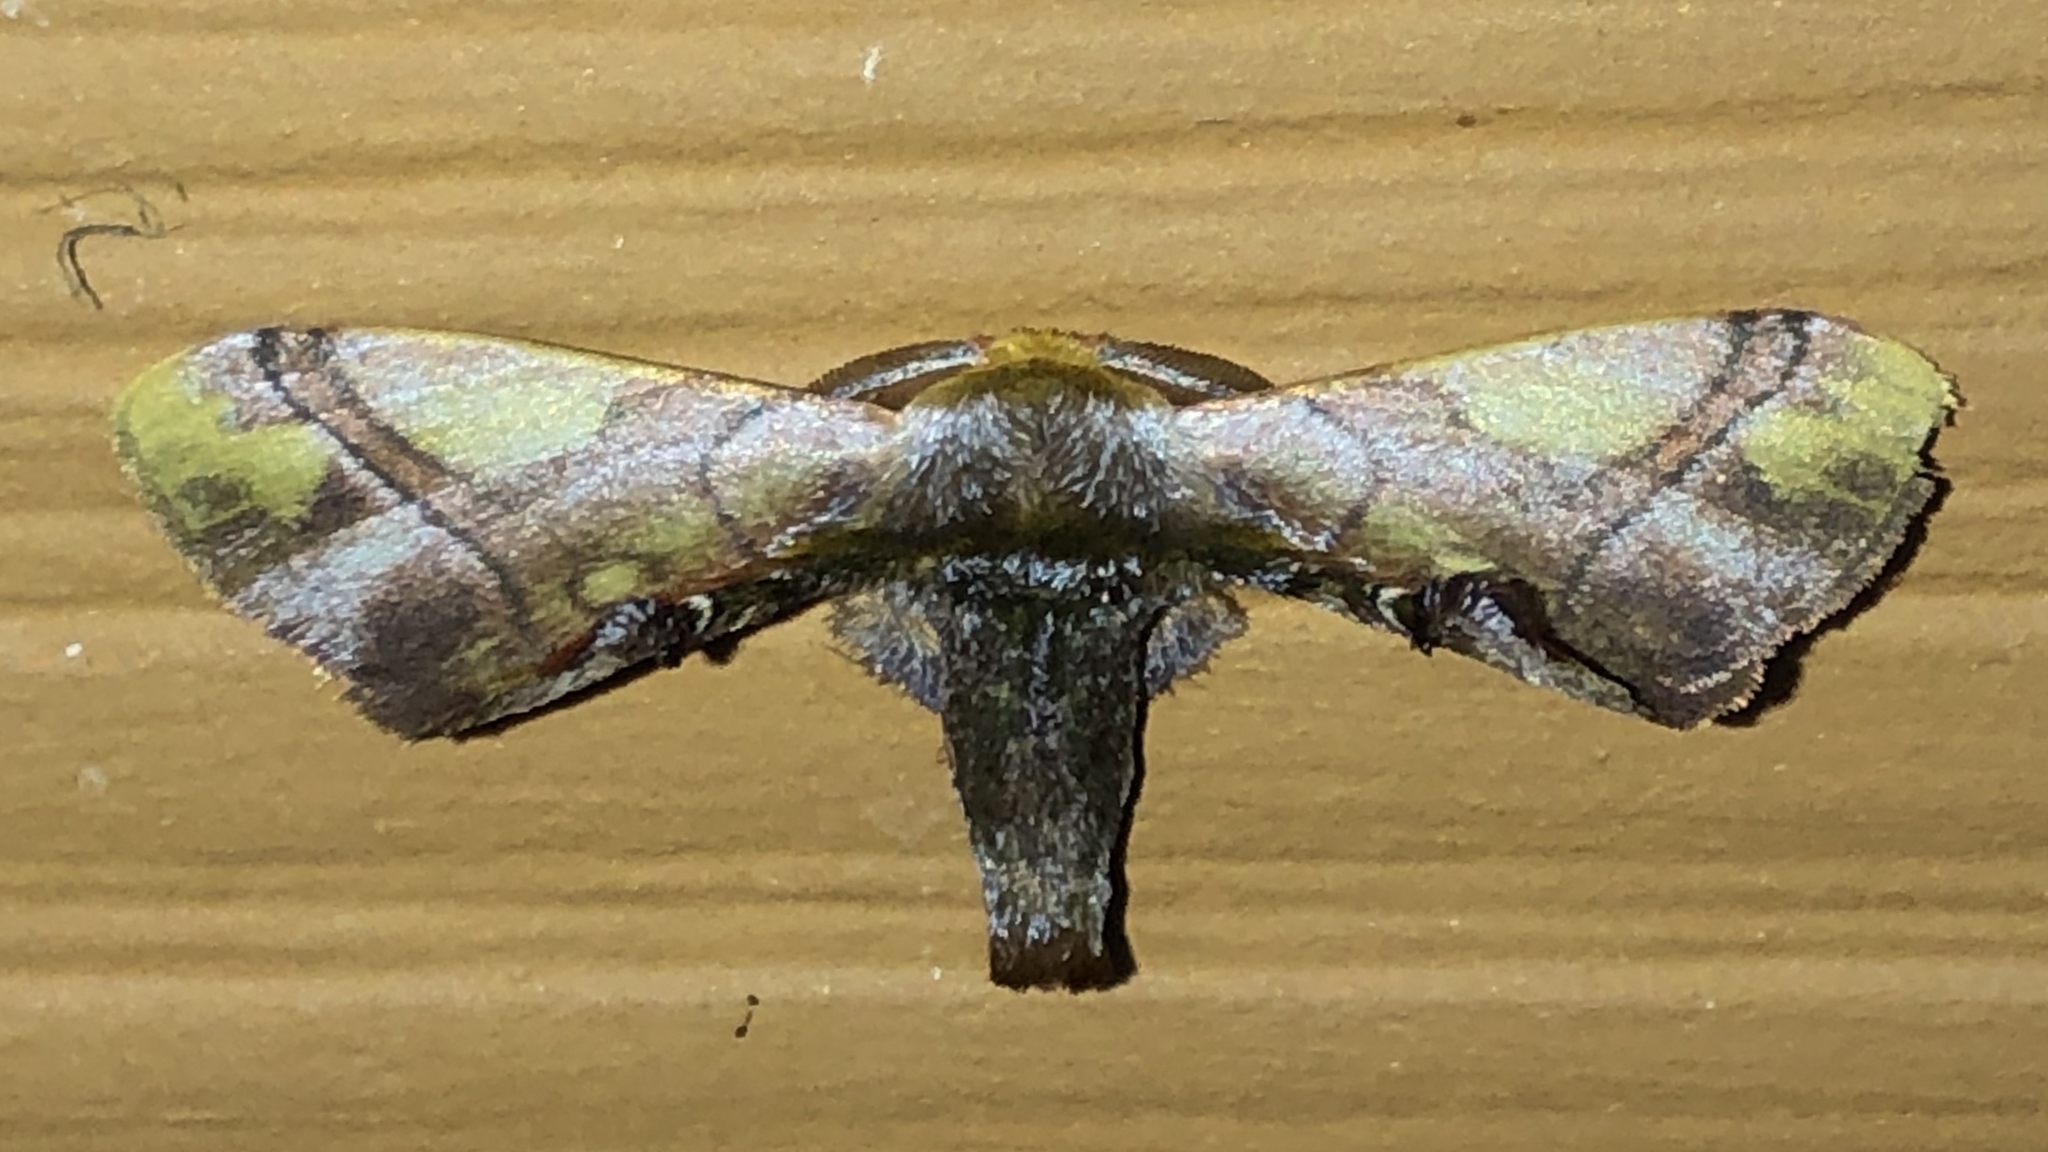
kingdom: Animalia
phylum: Arthropoda
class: Insecta
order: Lepidoptera
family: Bombycidae
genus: Epia
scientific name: Epia muscosa
